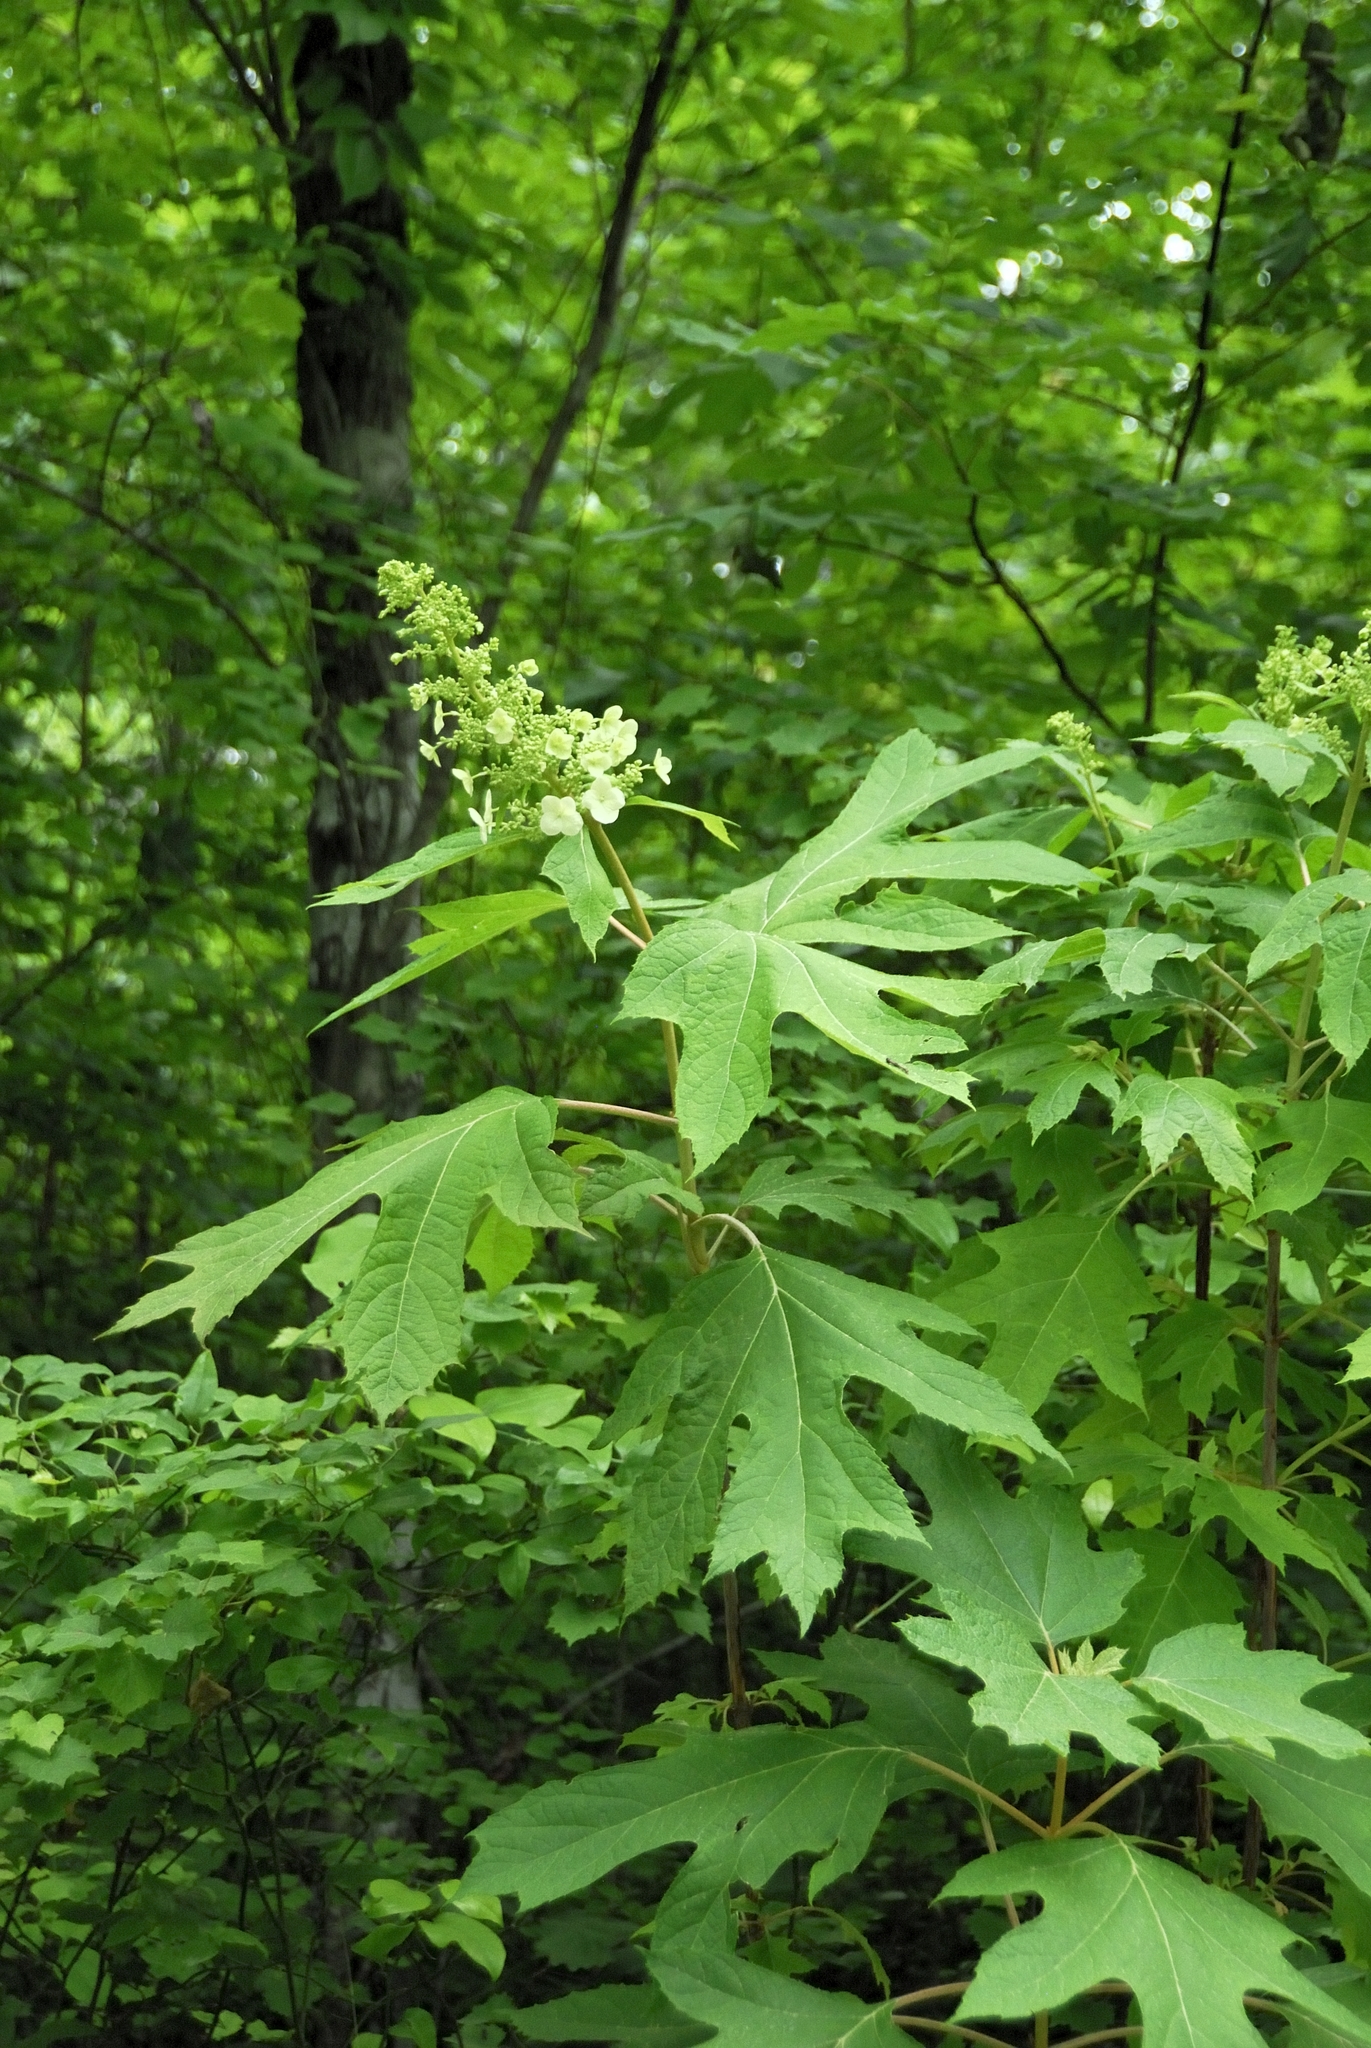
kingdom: Plantae
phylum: Tracheophyta
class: Magnoliopsida
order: Cornales
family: Hydrangeaceae
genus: Hydrangea
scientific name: Hydrangea quercifolia
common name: Oak-leaf hydrangea
